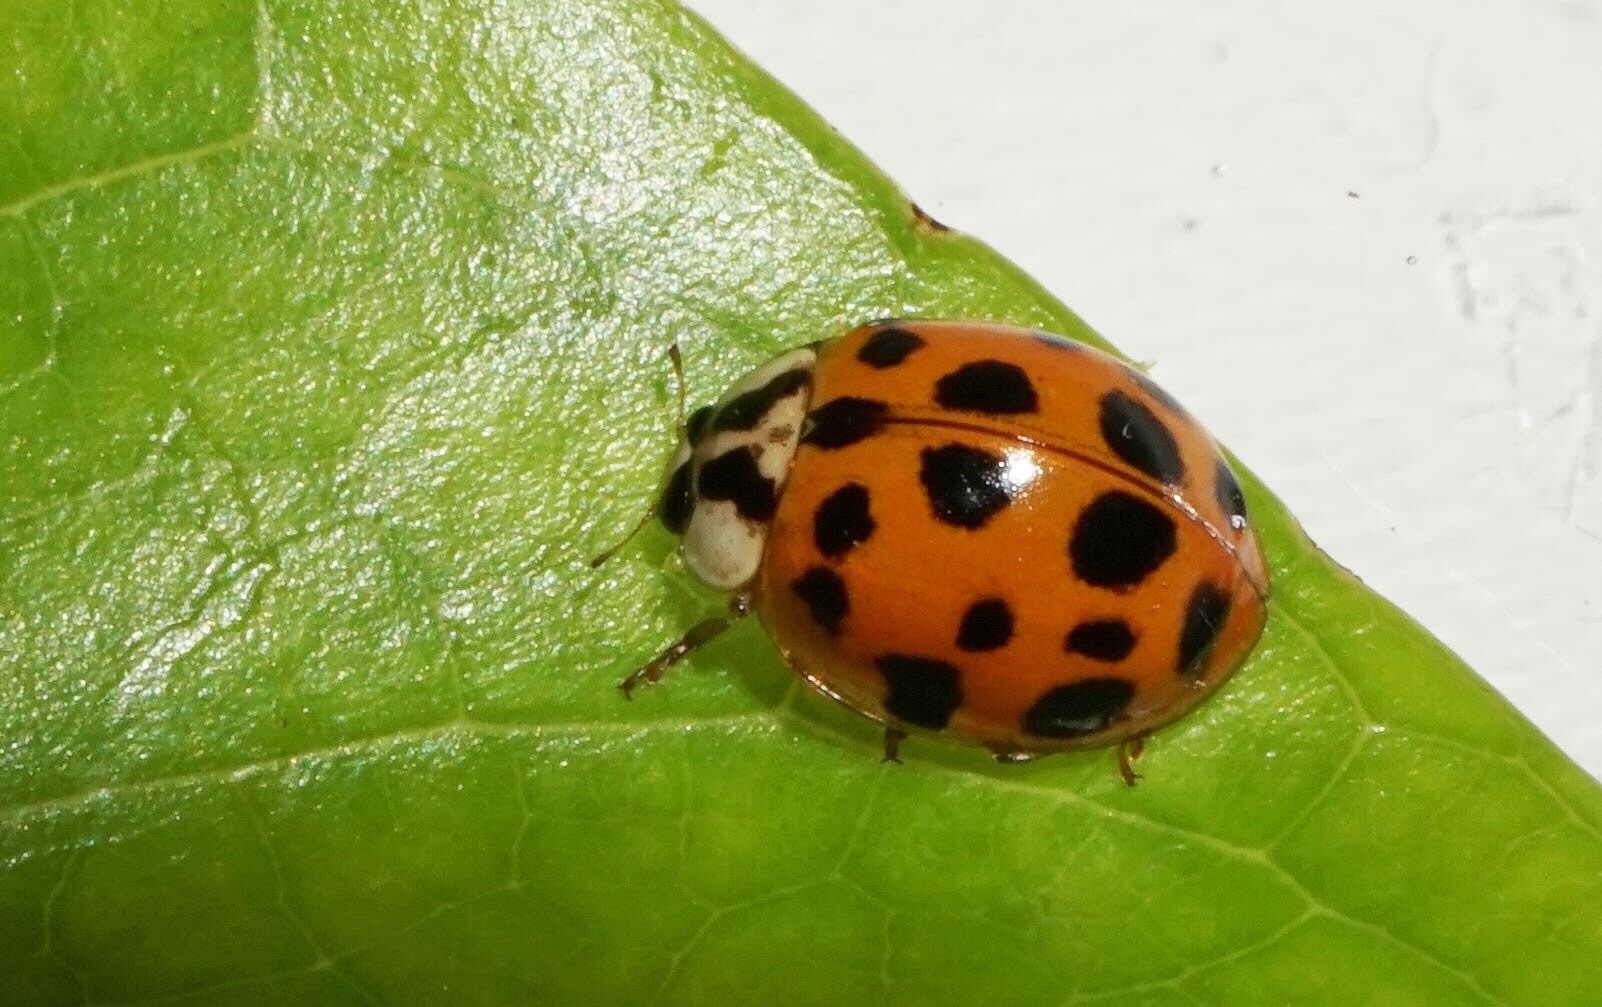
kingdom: Animalia
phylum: Arthropoda
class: Insecta
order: Coleoptera
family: Coccinellidae
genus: Harmonia
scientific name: Harmonia axyridis
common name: Harlequin ladybird
